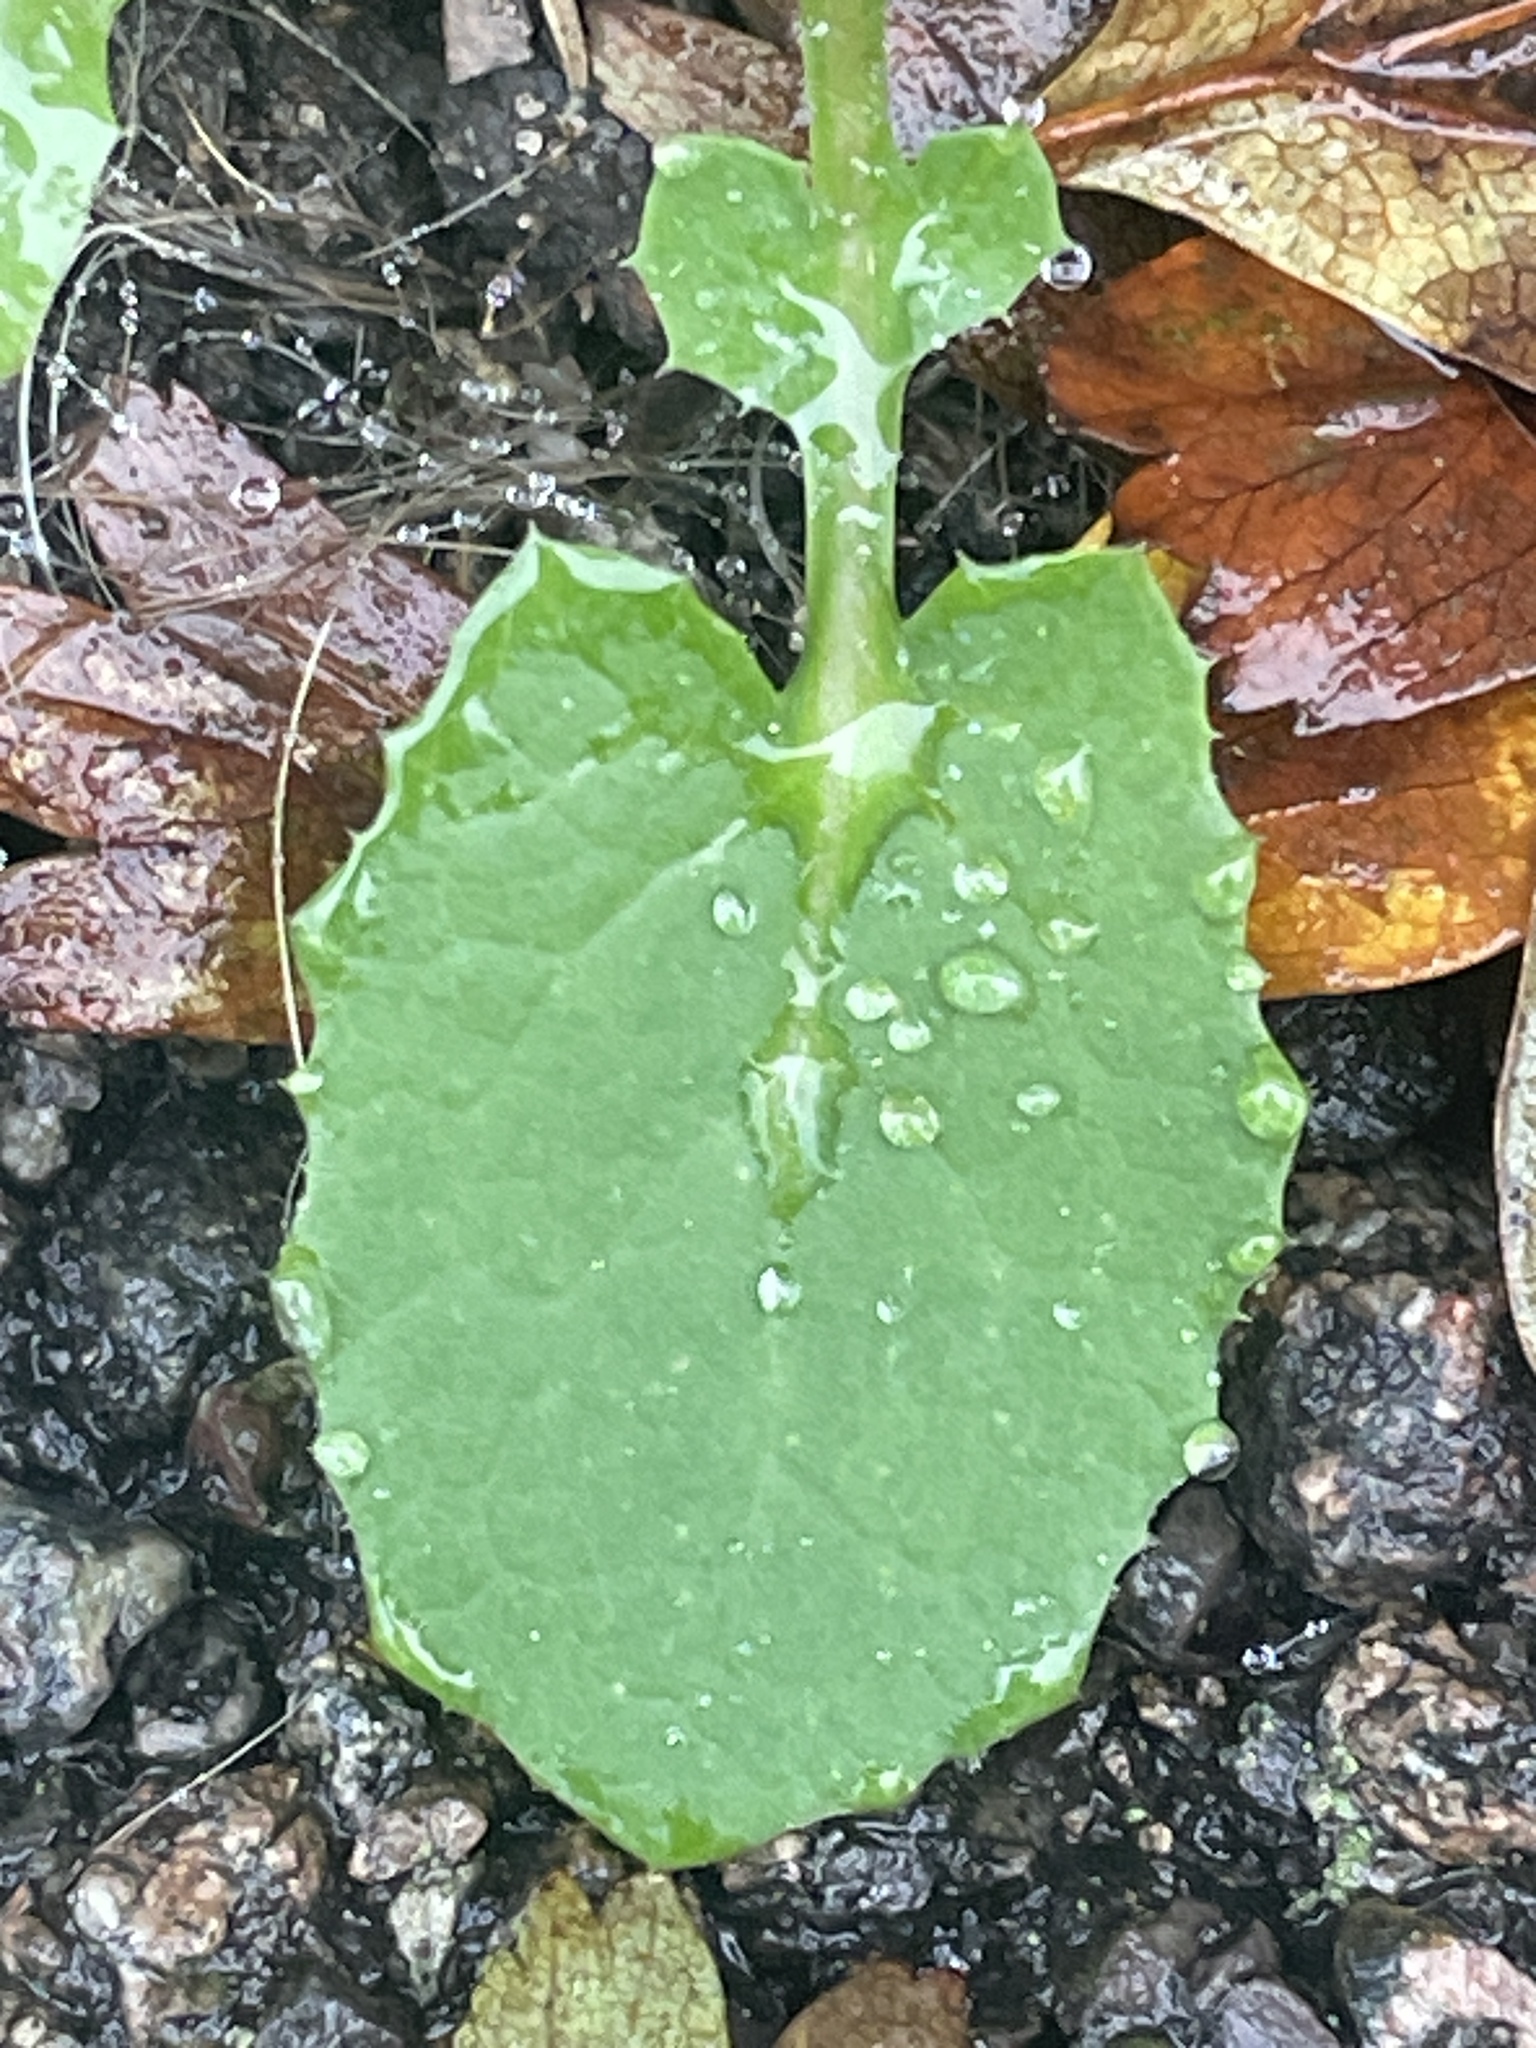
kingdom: Plantae
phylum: Tracheophyta
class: Magnoliopsida
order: Asterales
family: Asteraceae
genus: Sonchus
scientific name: Sonchus oleraceus
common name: Common sowthistle
